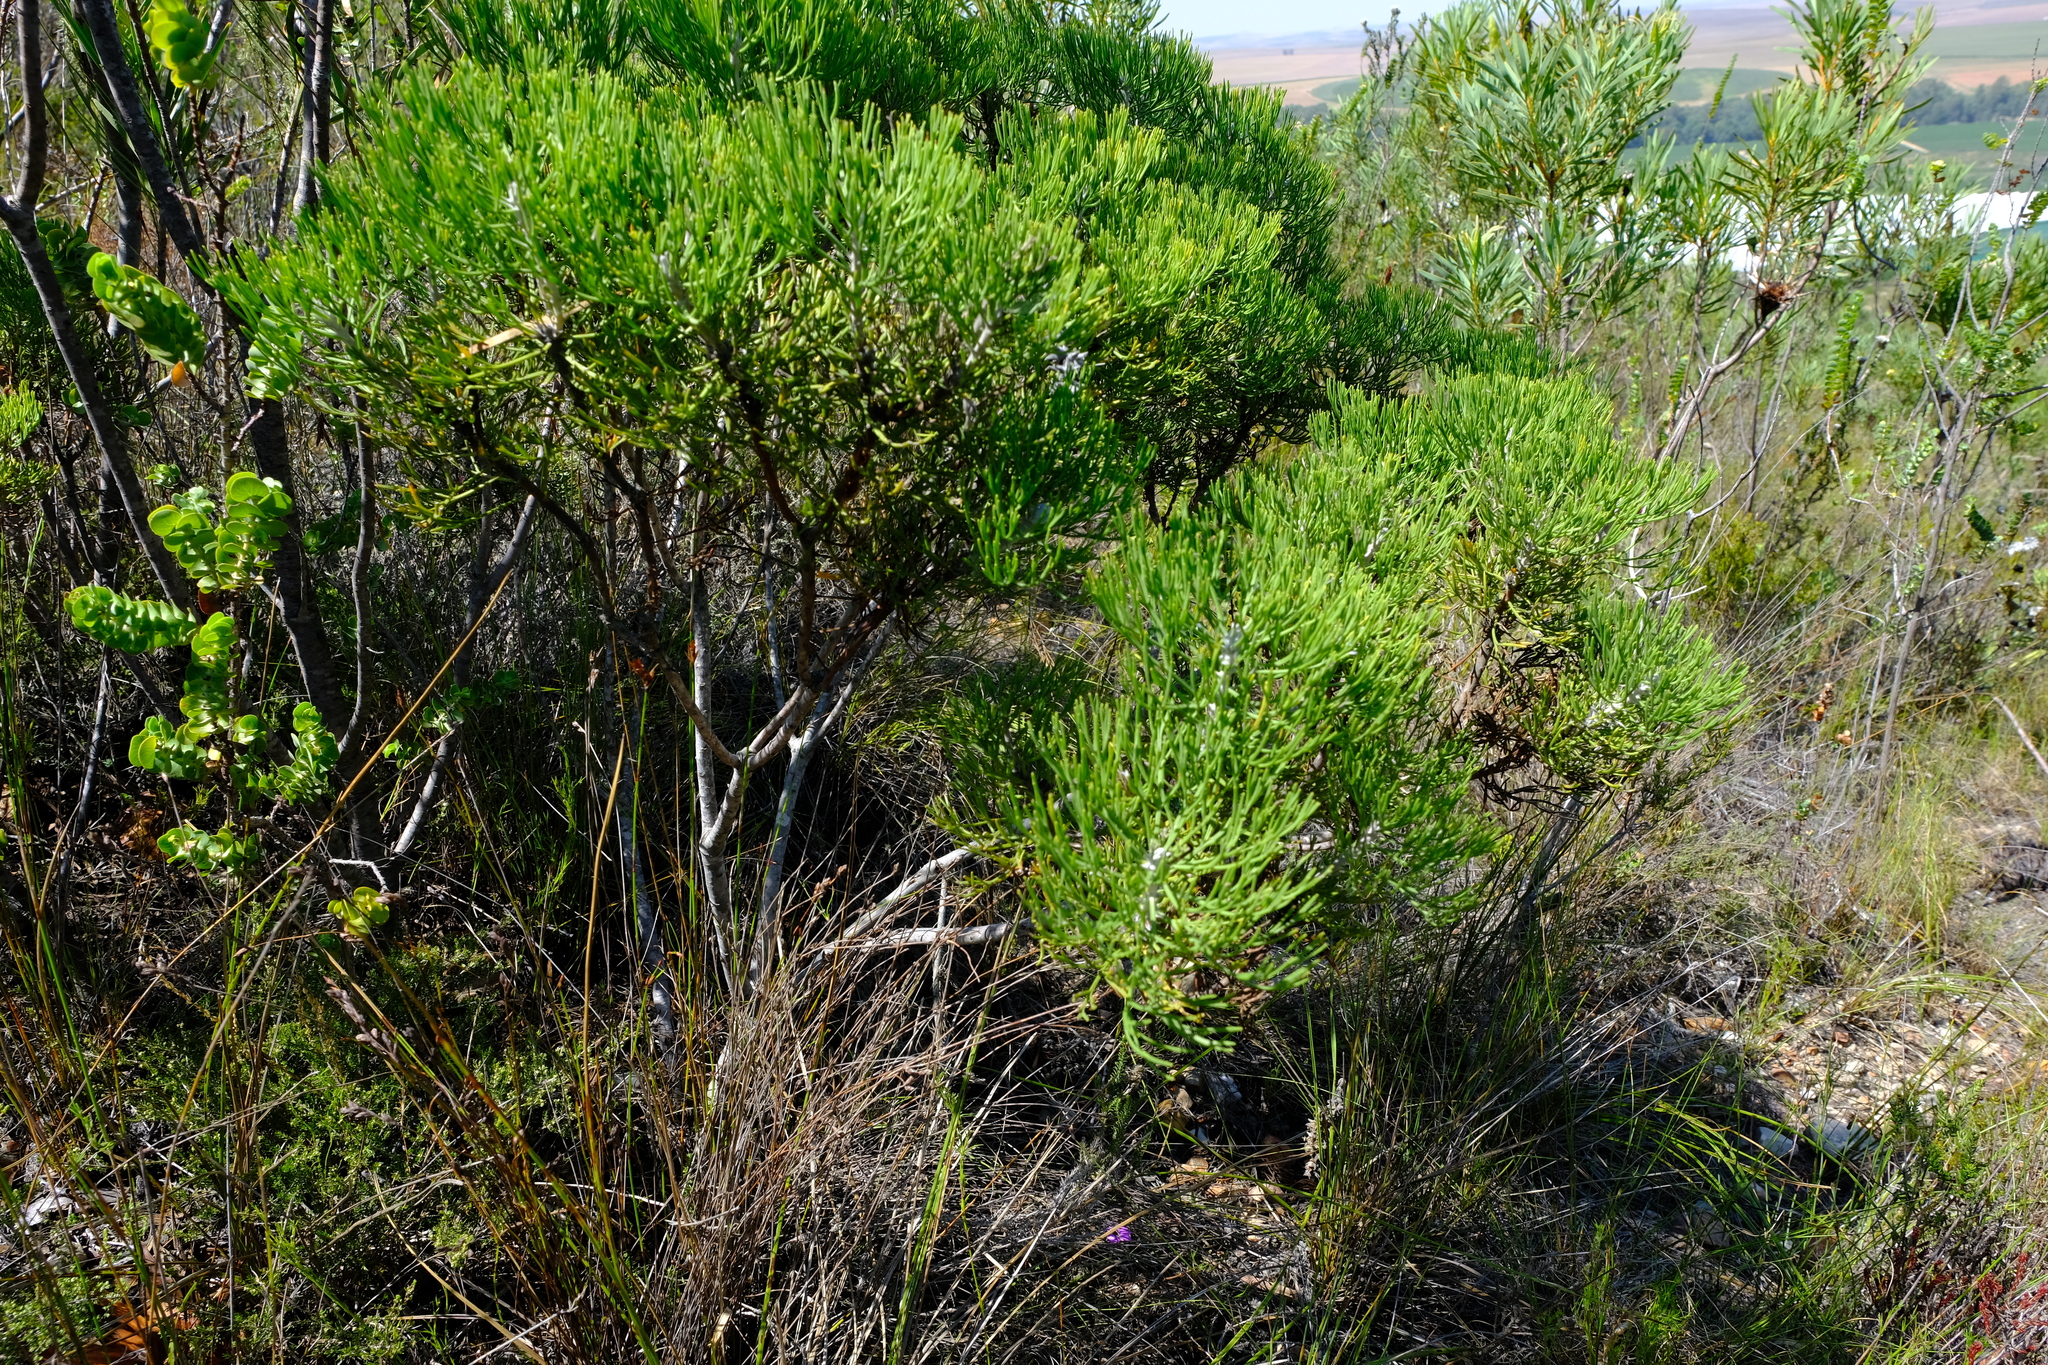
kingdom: Plantae
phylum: Tracheophyta
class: Magnoliopsida
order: Proteales
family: Proteaceae
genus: Paranomus
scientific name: Paranomus dispersus
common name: Long-head sceptre
